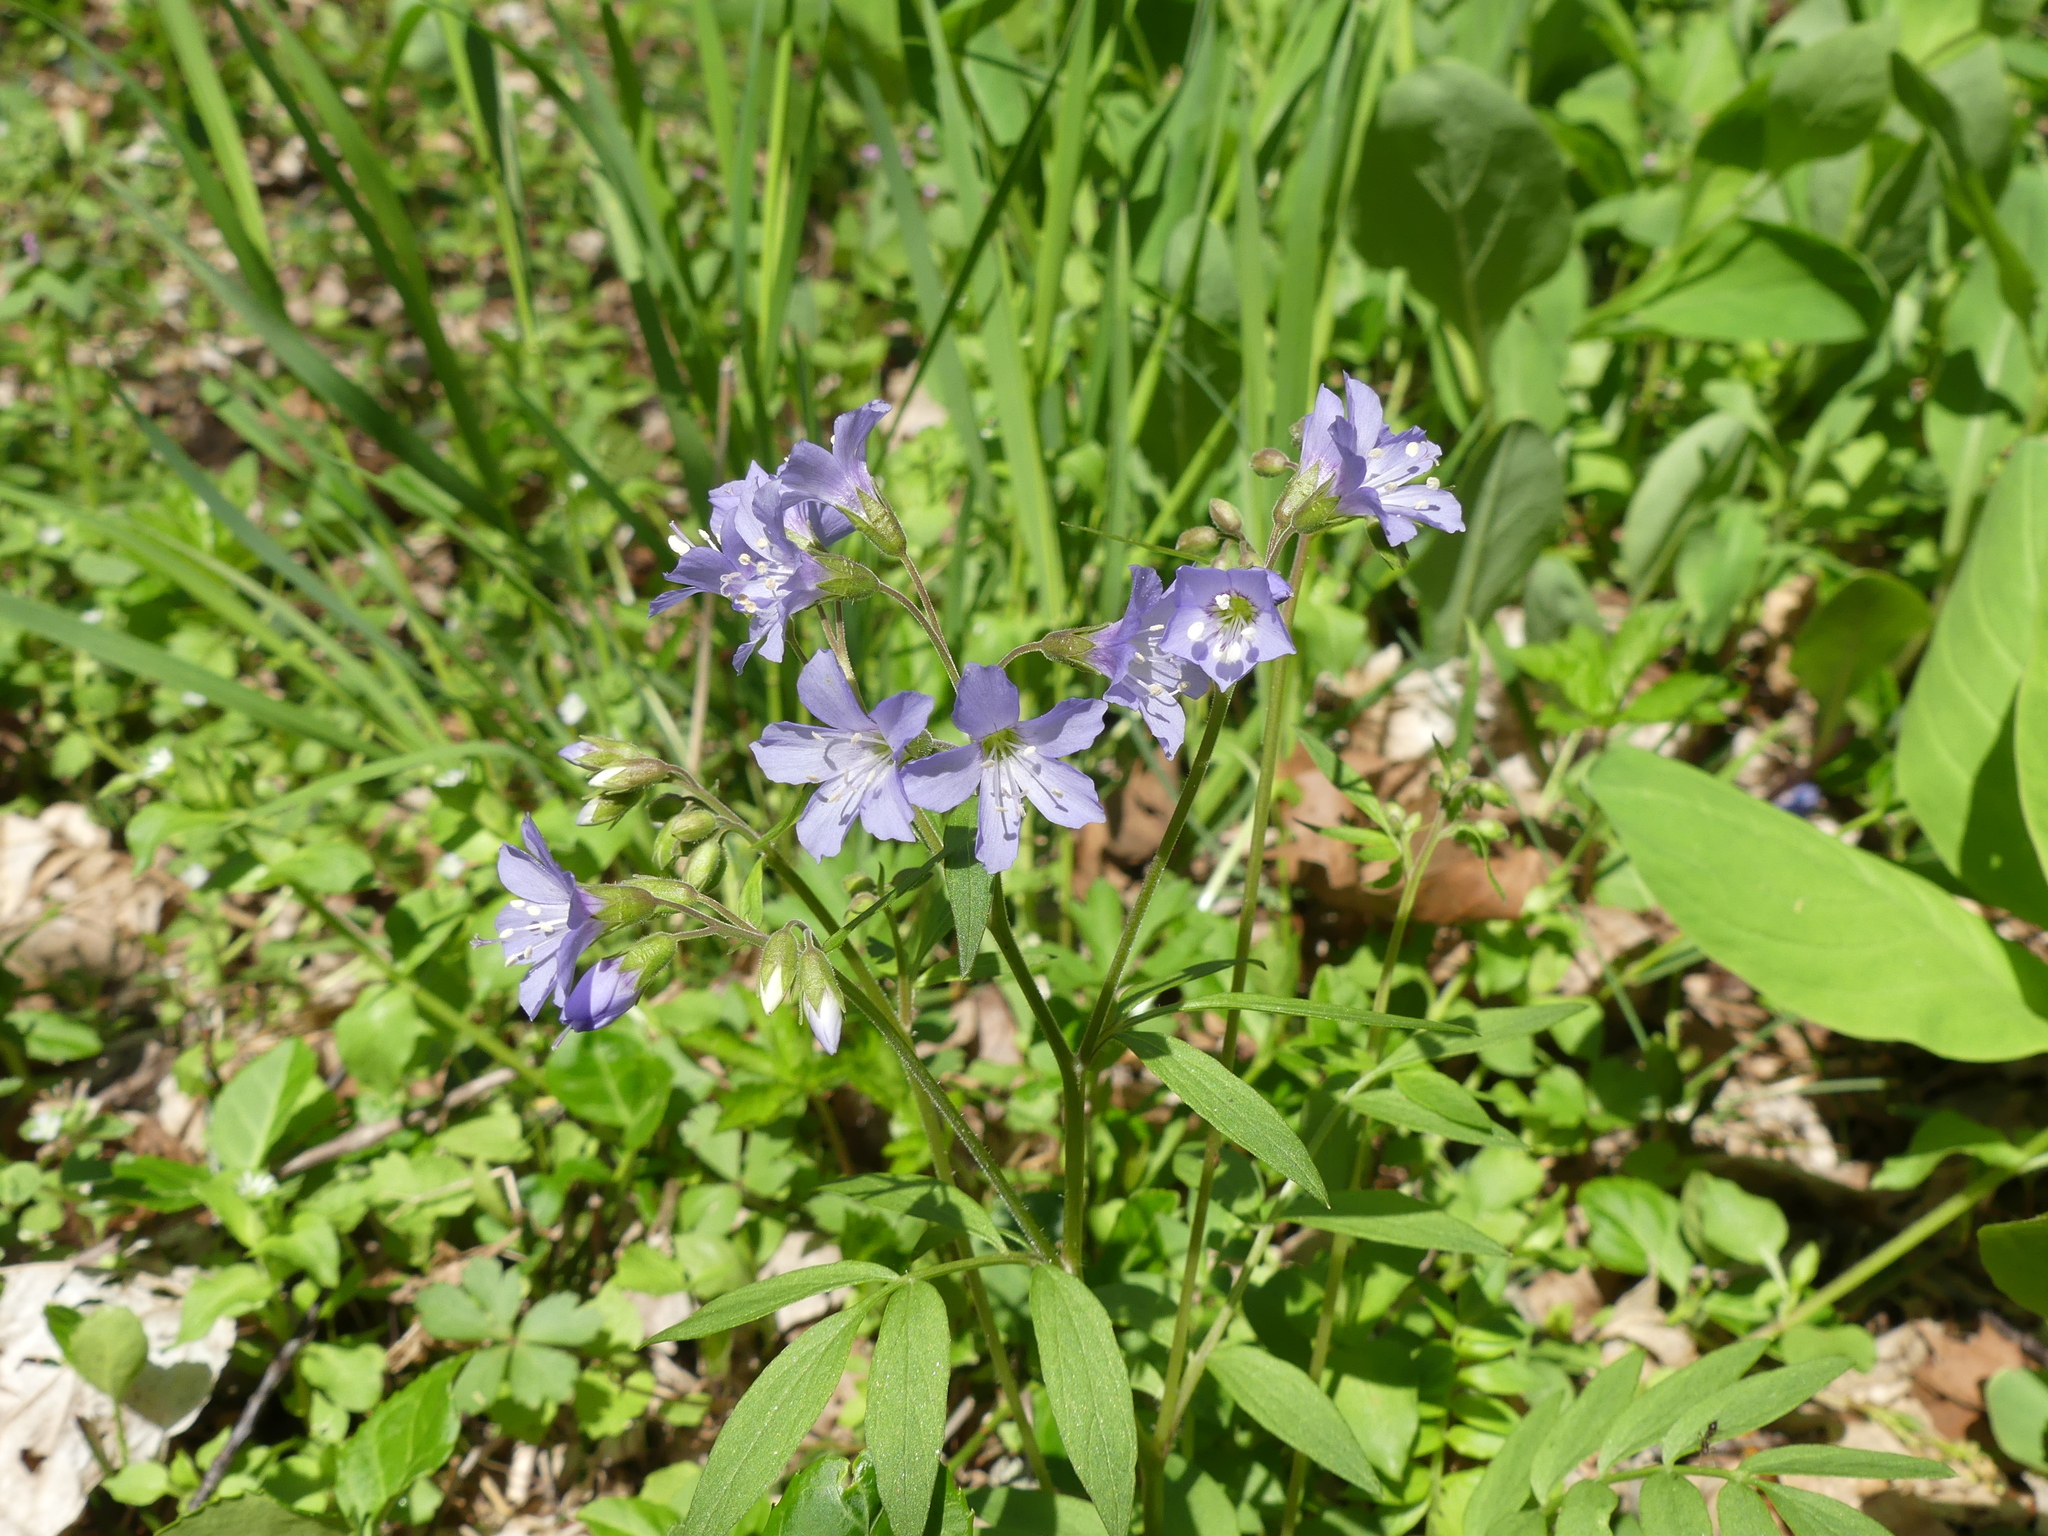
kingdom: Plantae
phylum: Tracheophyta
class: Magnoliopsida
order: Ericales
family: Polemoniaceae
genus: Polemonium
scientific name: Polemonium reptans
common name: Creeping jacob's-ladder
